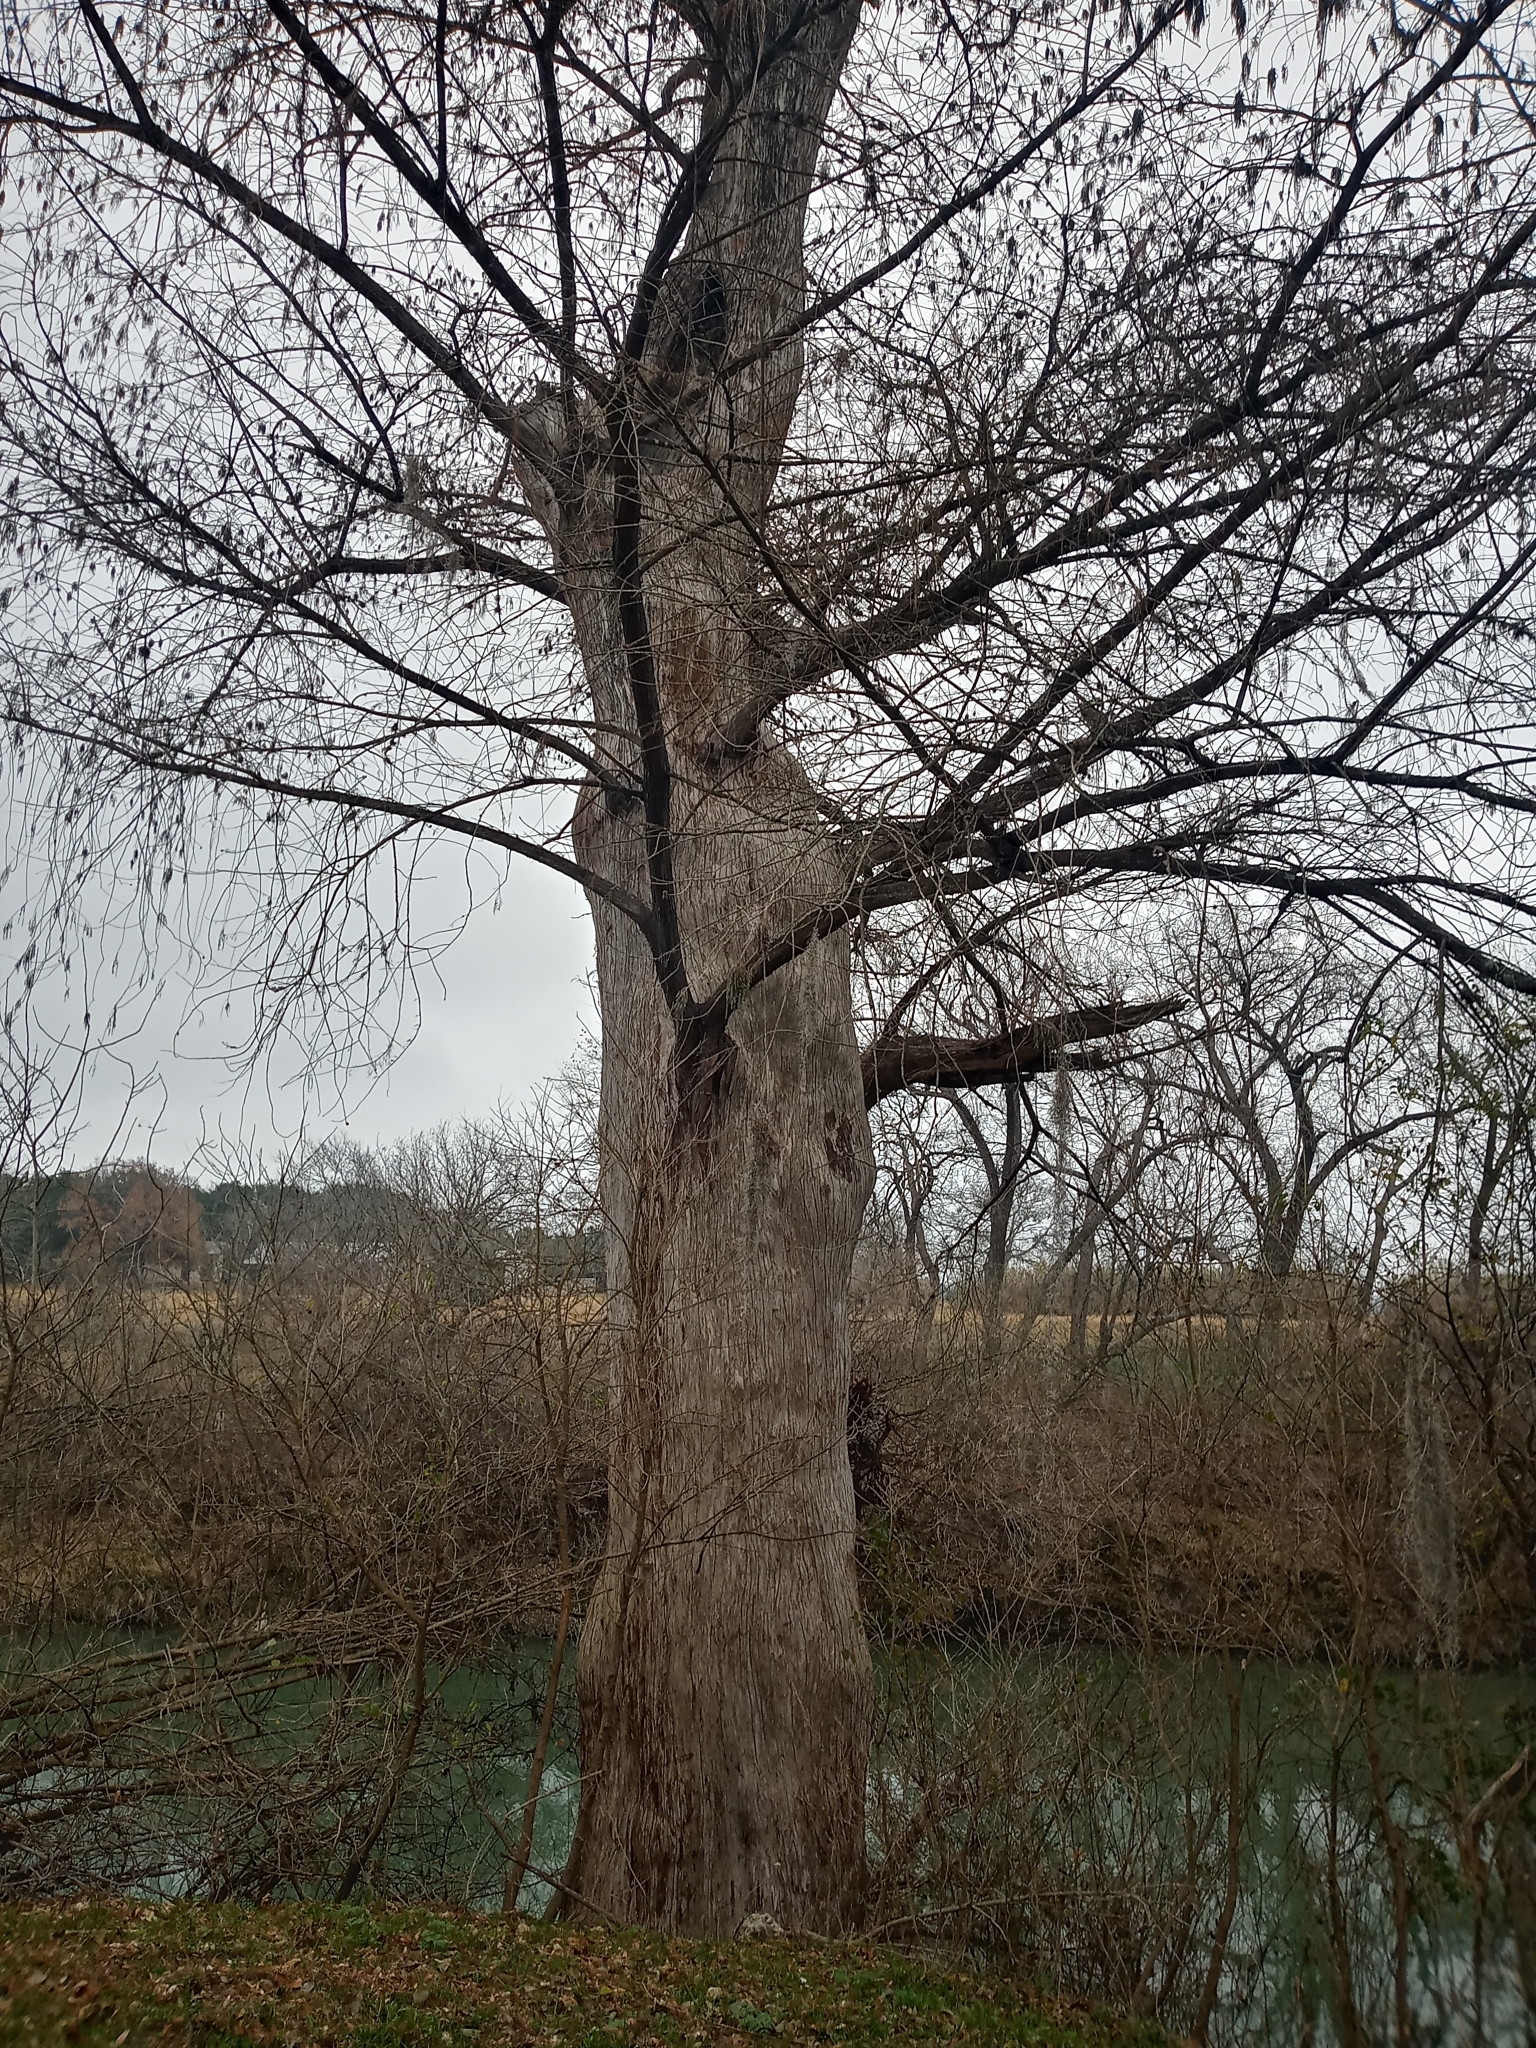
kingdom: Plantae
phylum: Tracheophyta
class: Pinopsida
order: Pinales
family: Cupressaceae
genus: Taxodium
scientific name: Taxodium distichum
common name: Bald cypress
